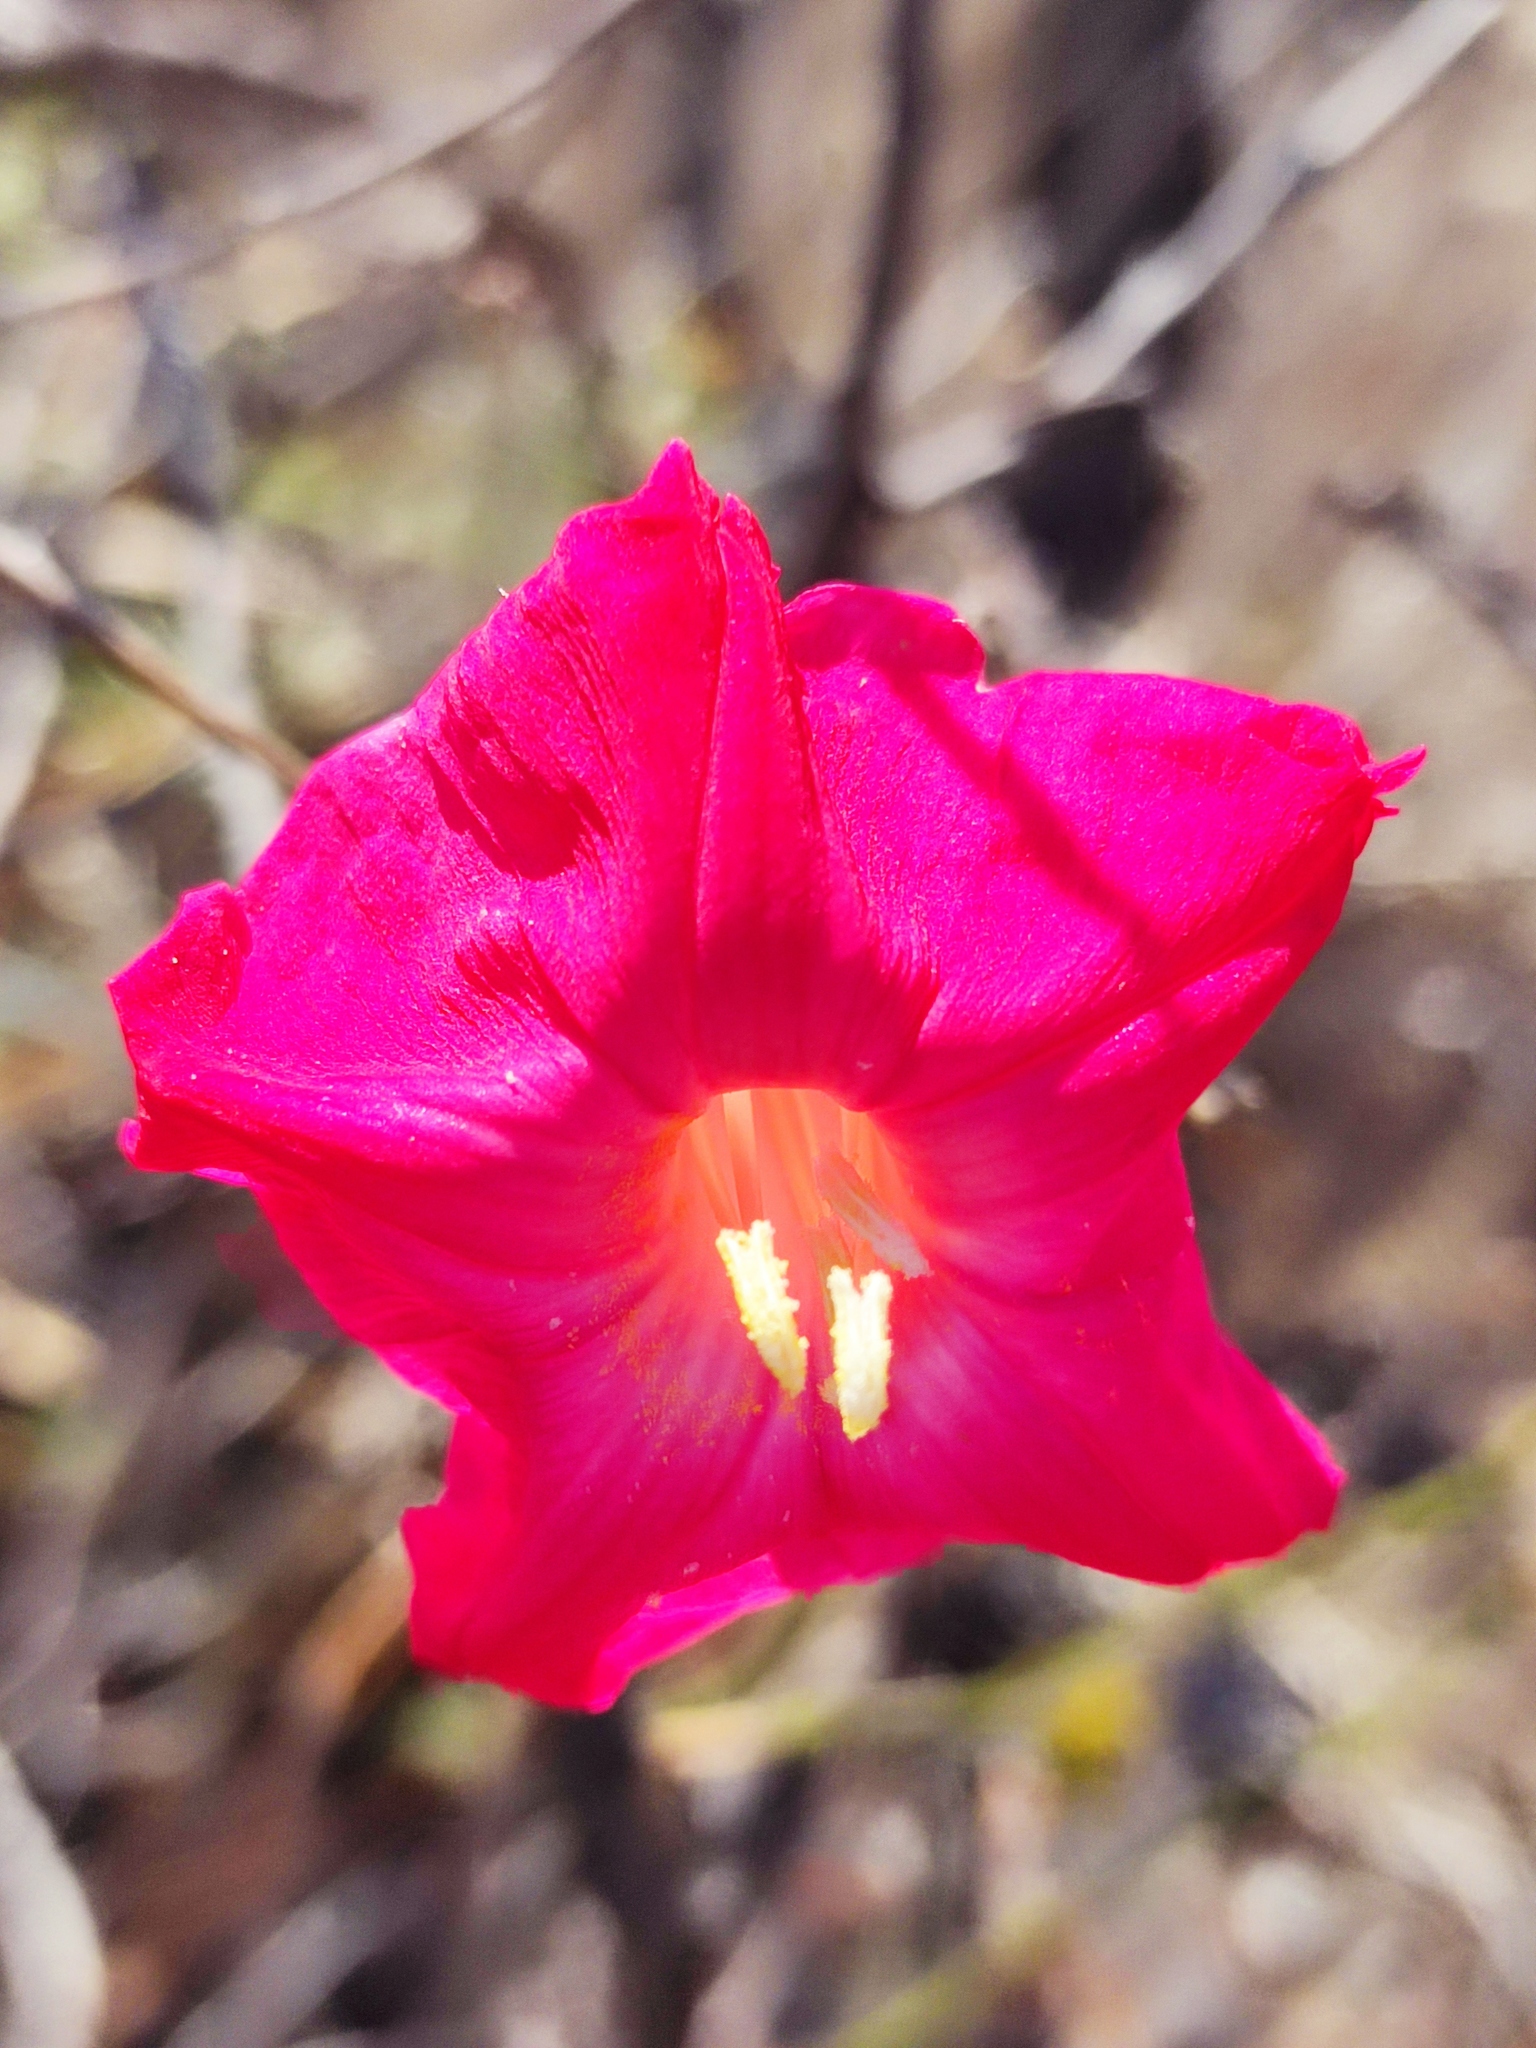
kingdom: Plantae
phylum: Tracheophyta
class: Magnoliopsida
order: Solanales
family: Convolvulaceae
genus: Ipomoea
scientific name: Ipomoea conzattii
